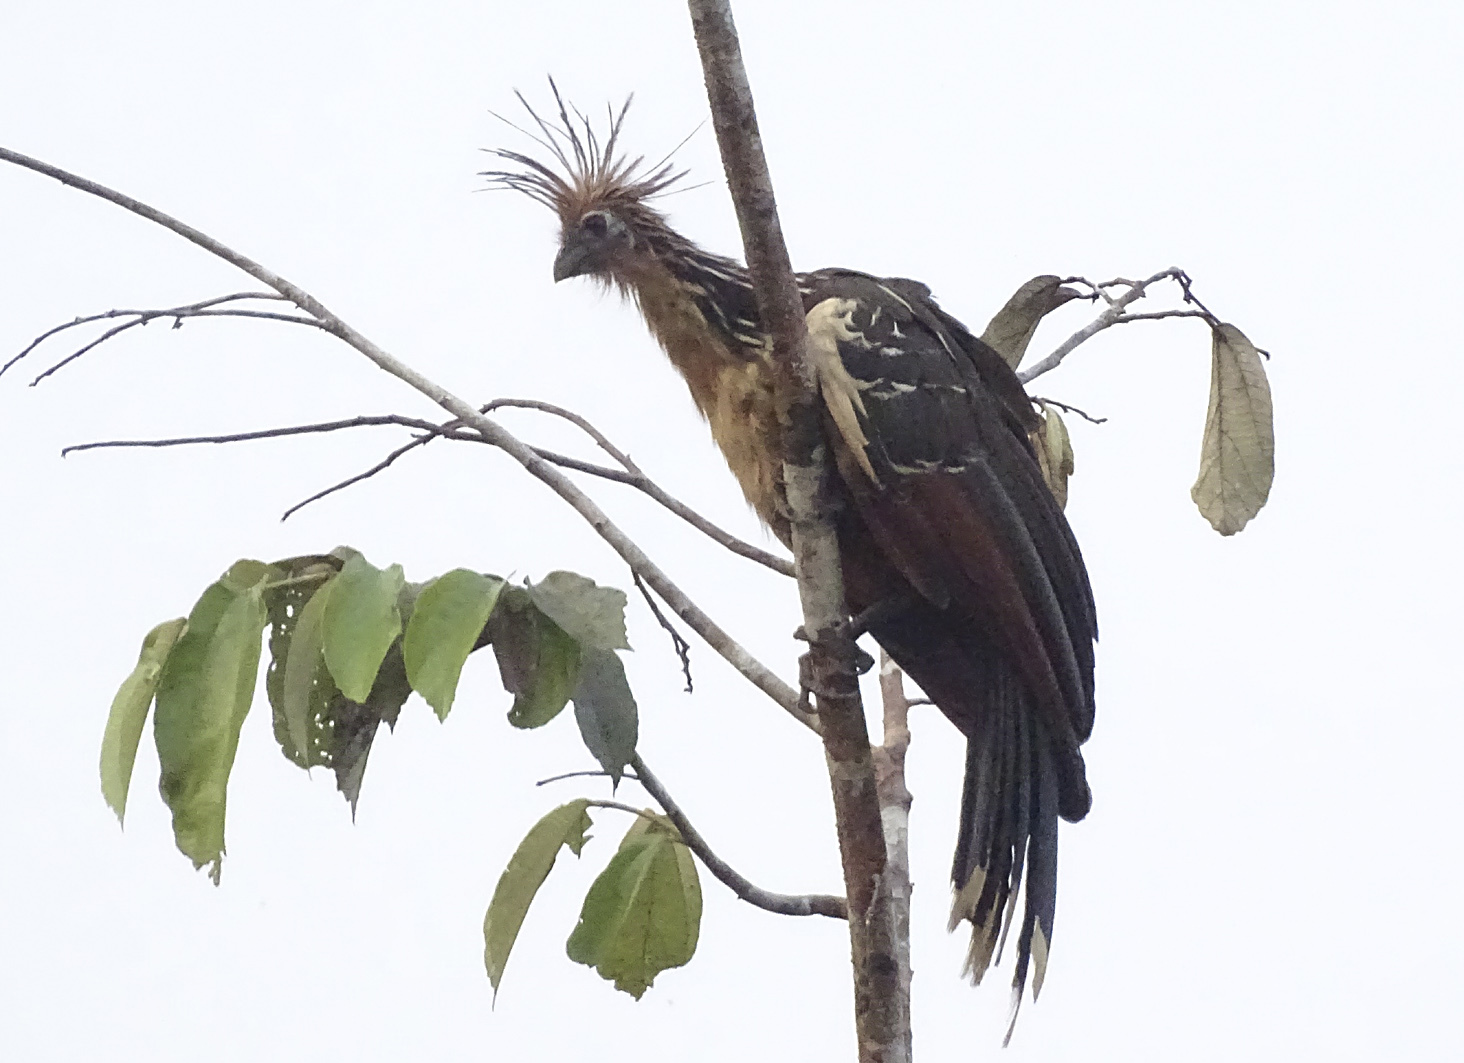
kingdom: Animalia
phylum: Chordata
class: Aves
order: Opisthocomiformes
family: Opisthocomidae
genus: Opisthocomus
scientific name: Opisthocomus hoazin
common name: Hoatzin
